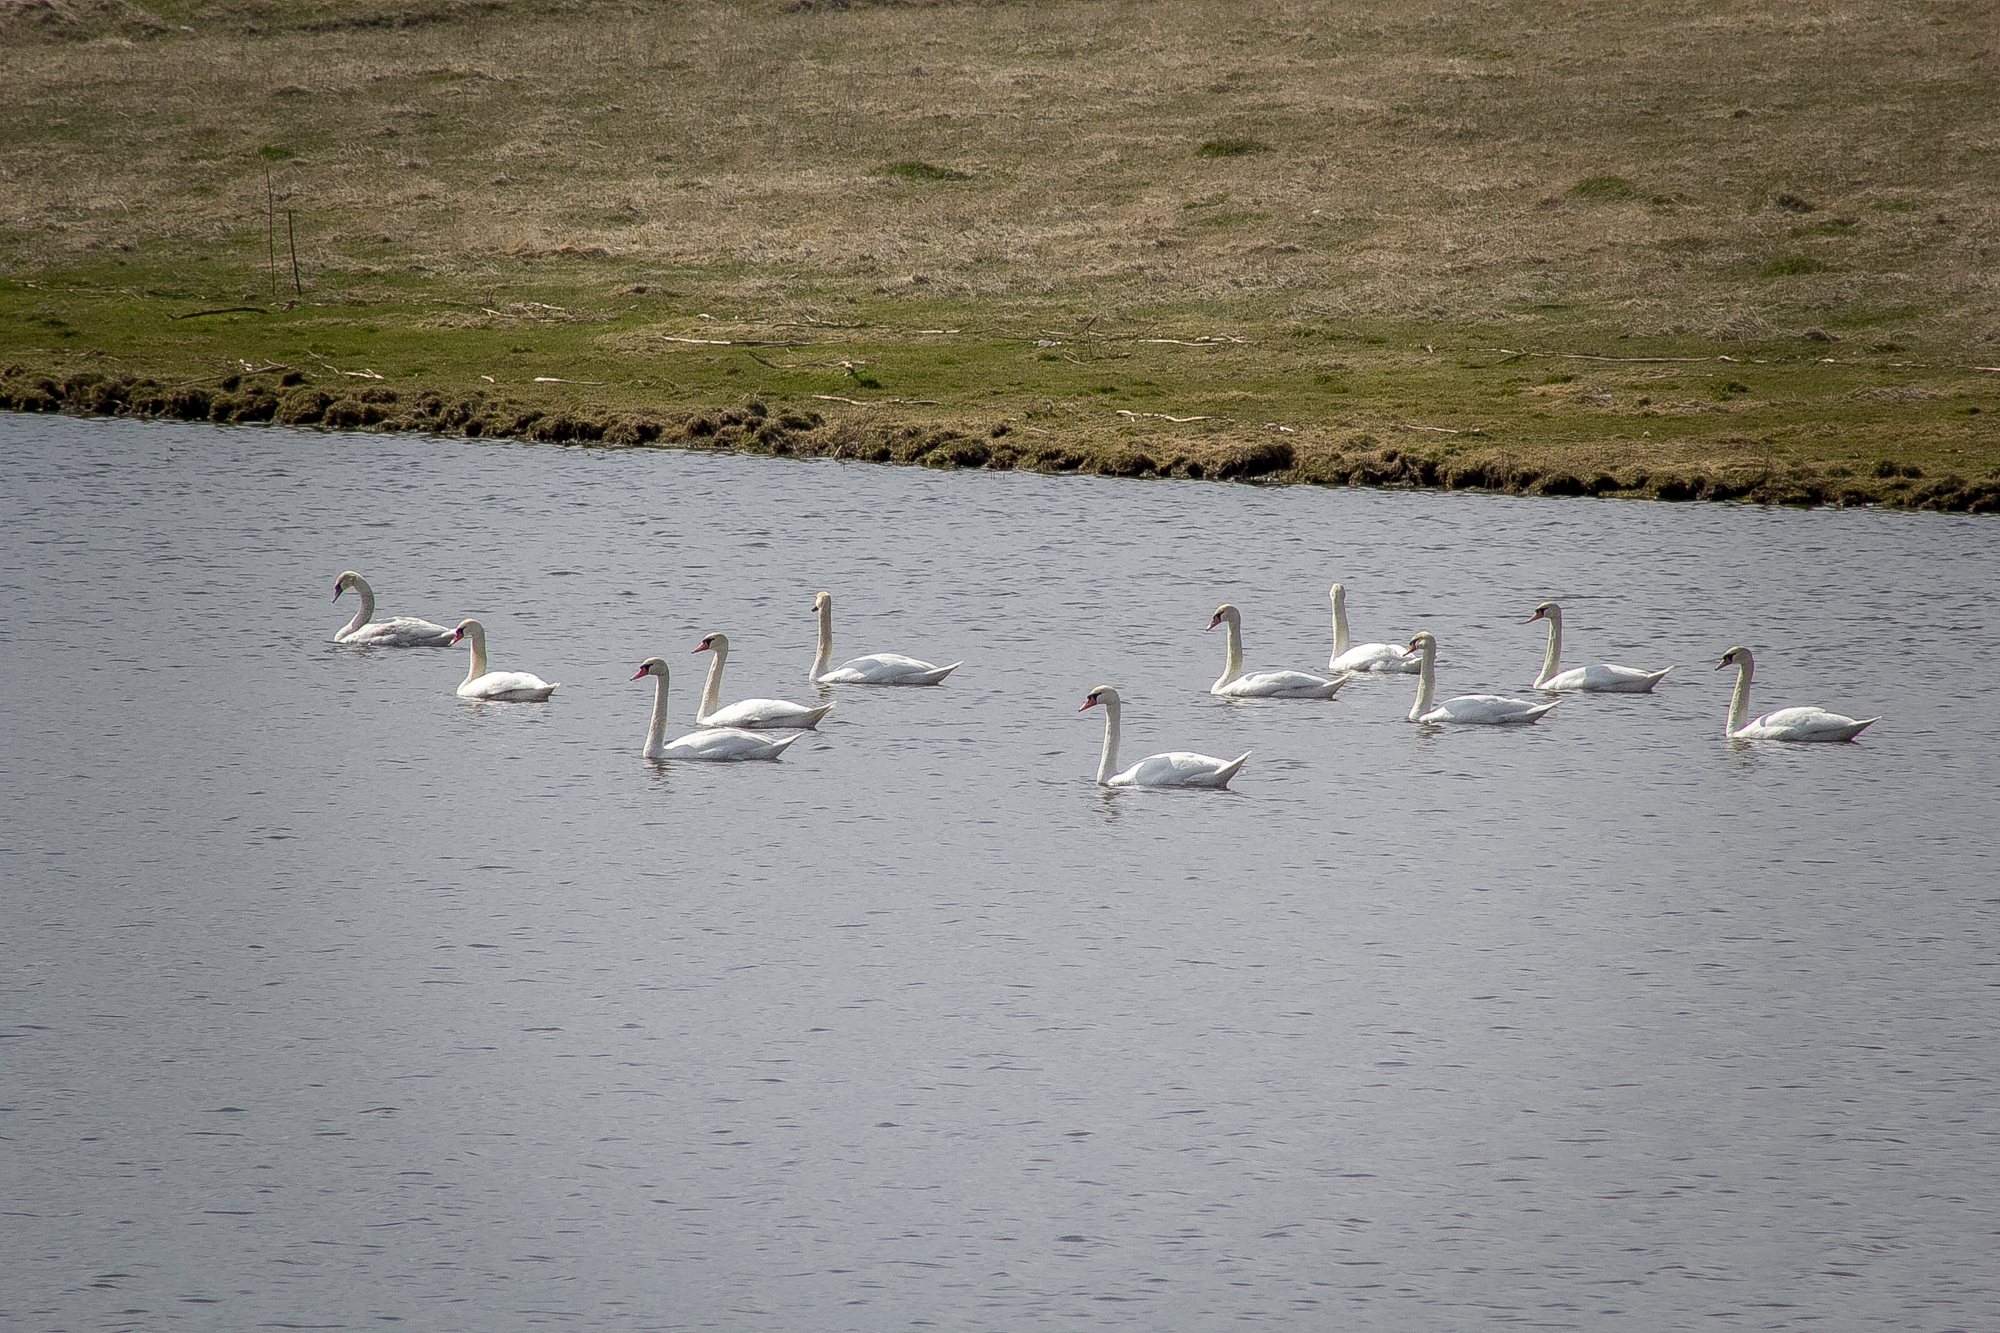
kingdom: Animalia
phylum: Chordata
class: Aves
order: Anseriformes
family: Anatidae
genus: Cygnus
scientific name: Cygnus olor
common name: Mute swan
